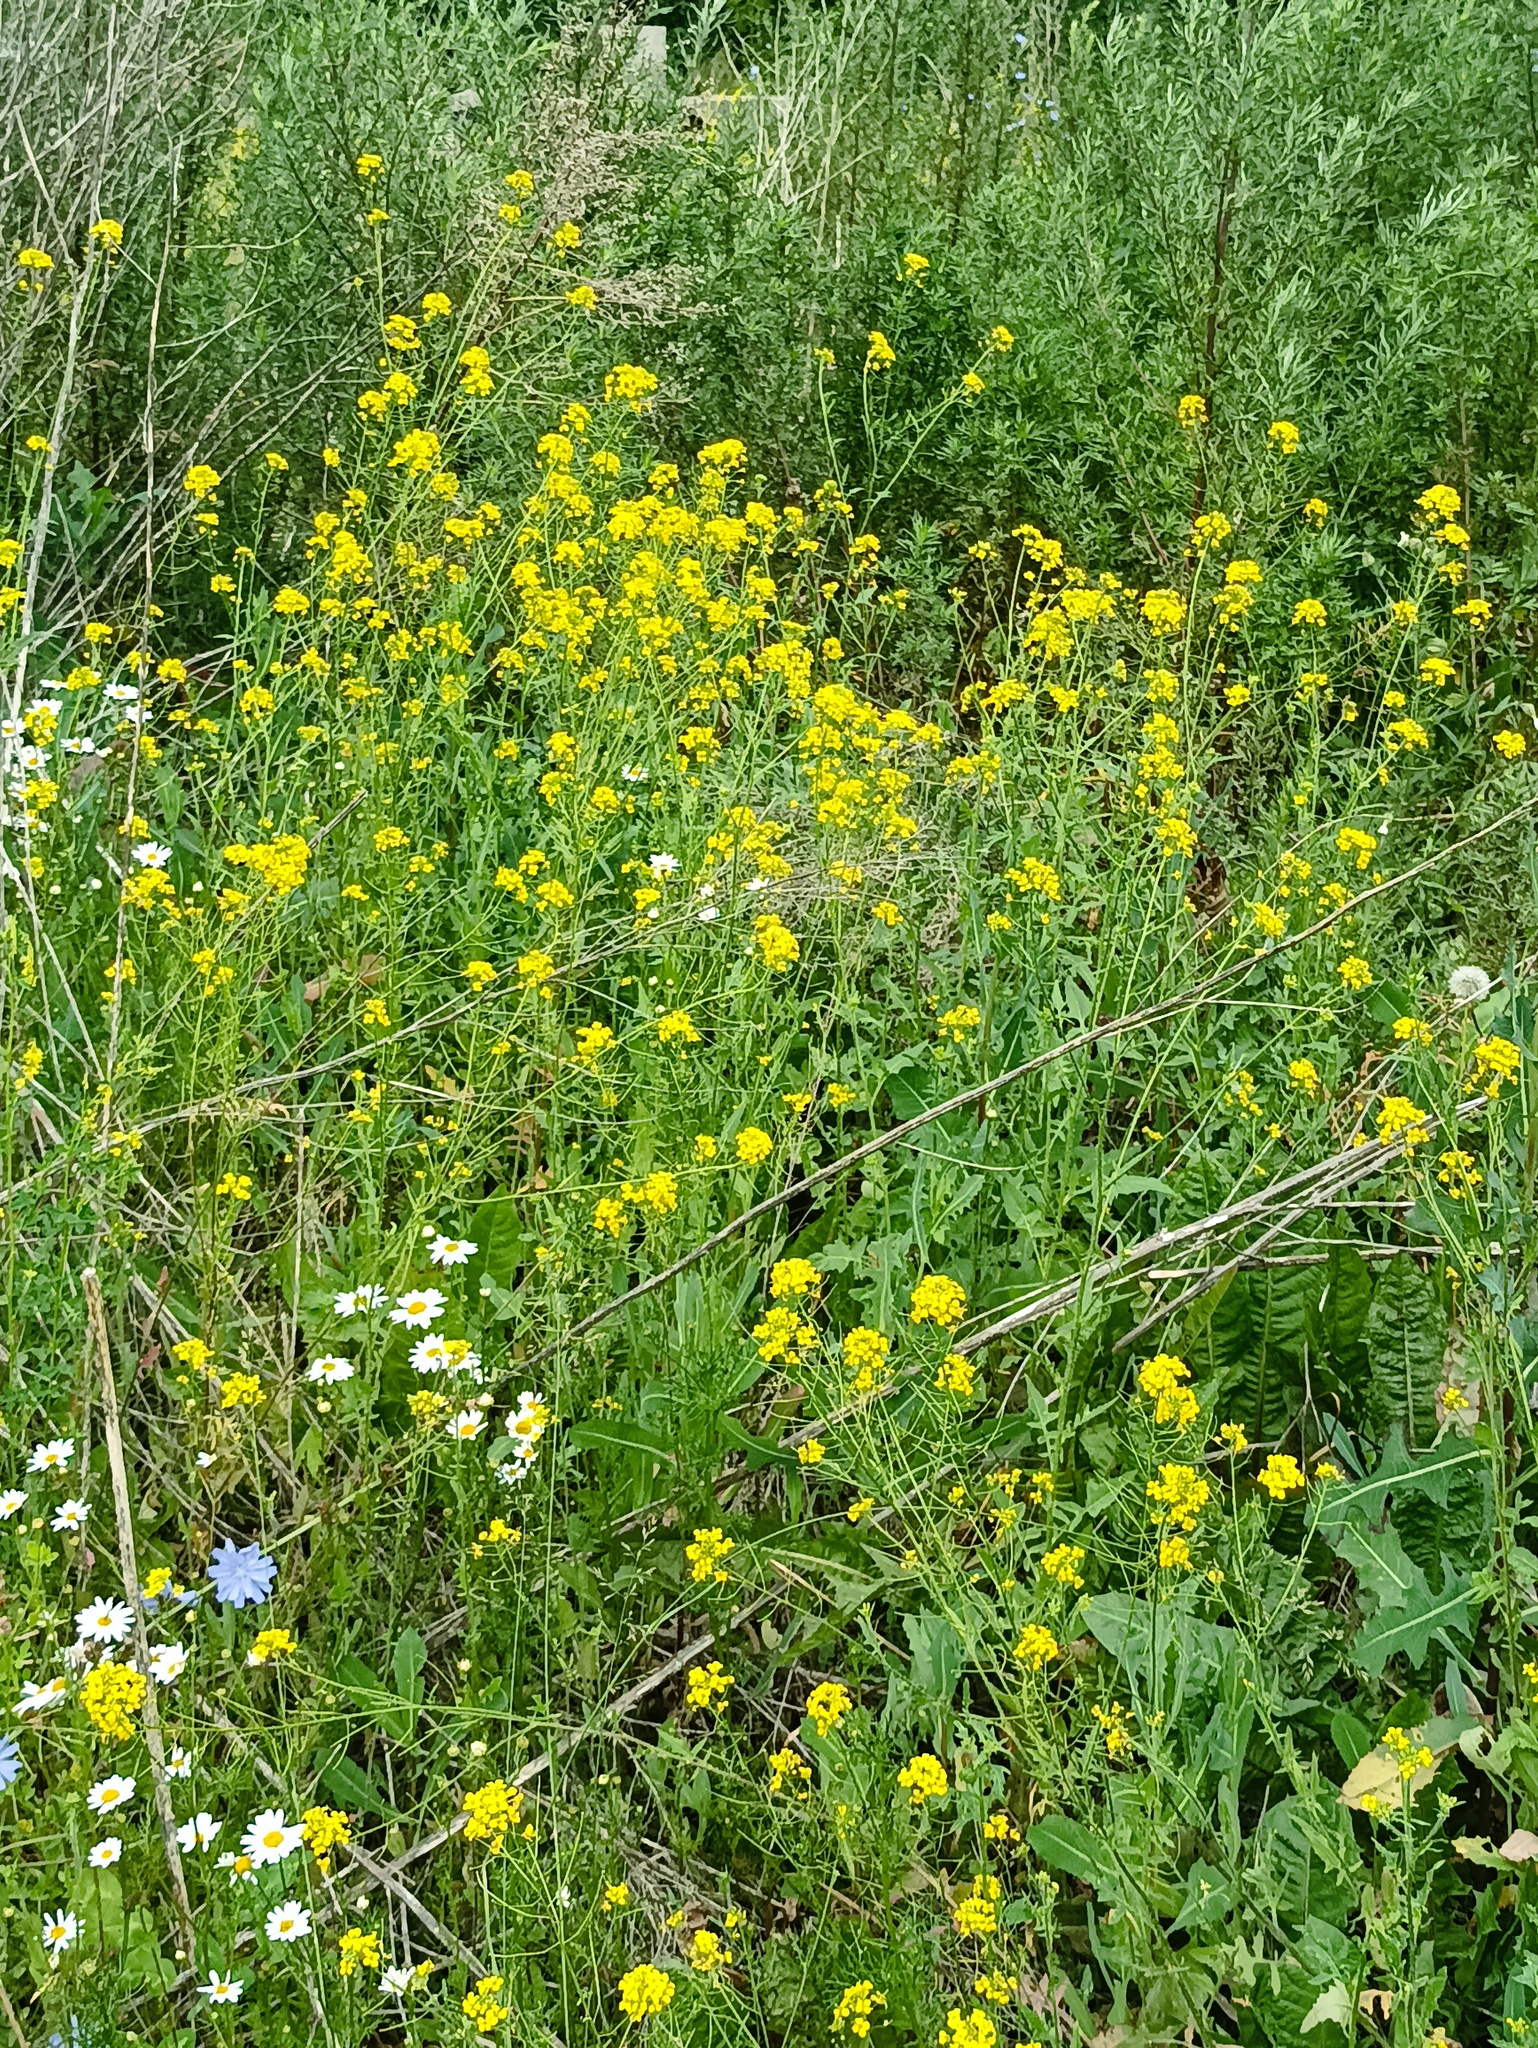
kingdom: Plantae
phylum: Tracheophyta
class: Magnoliopsida
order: Brassicales
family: Brassicaceae
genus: Sisymbrium
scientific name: Sisymbrium loeselii
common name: False london-rocket
